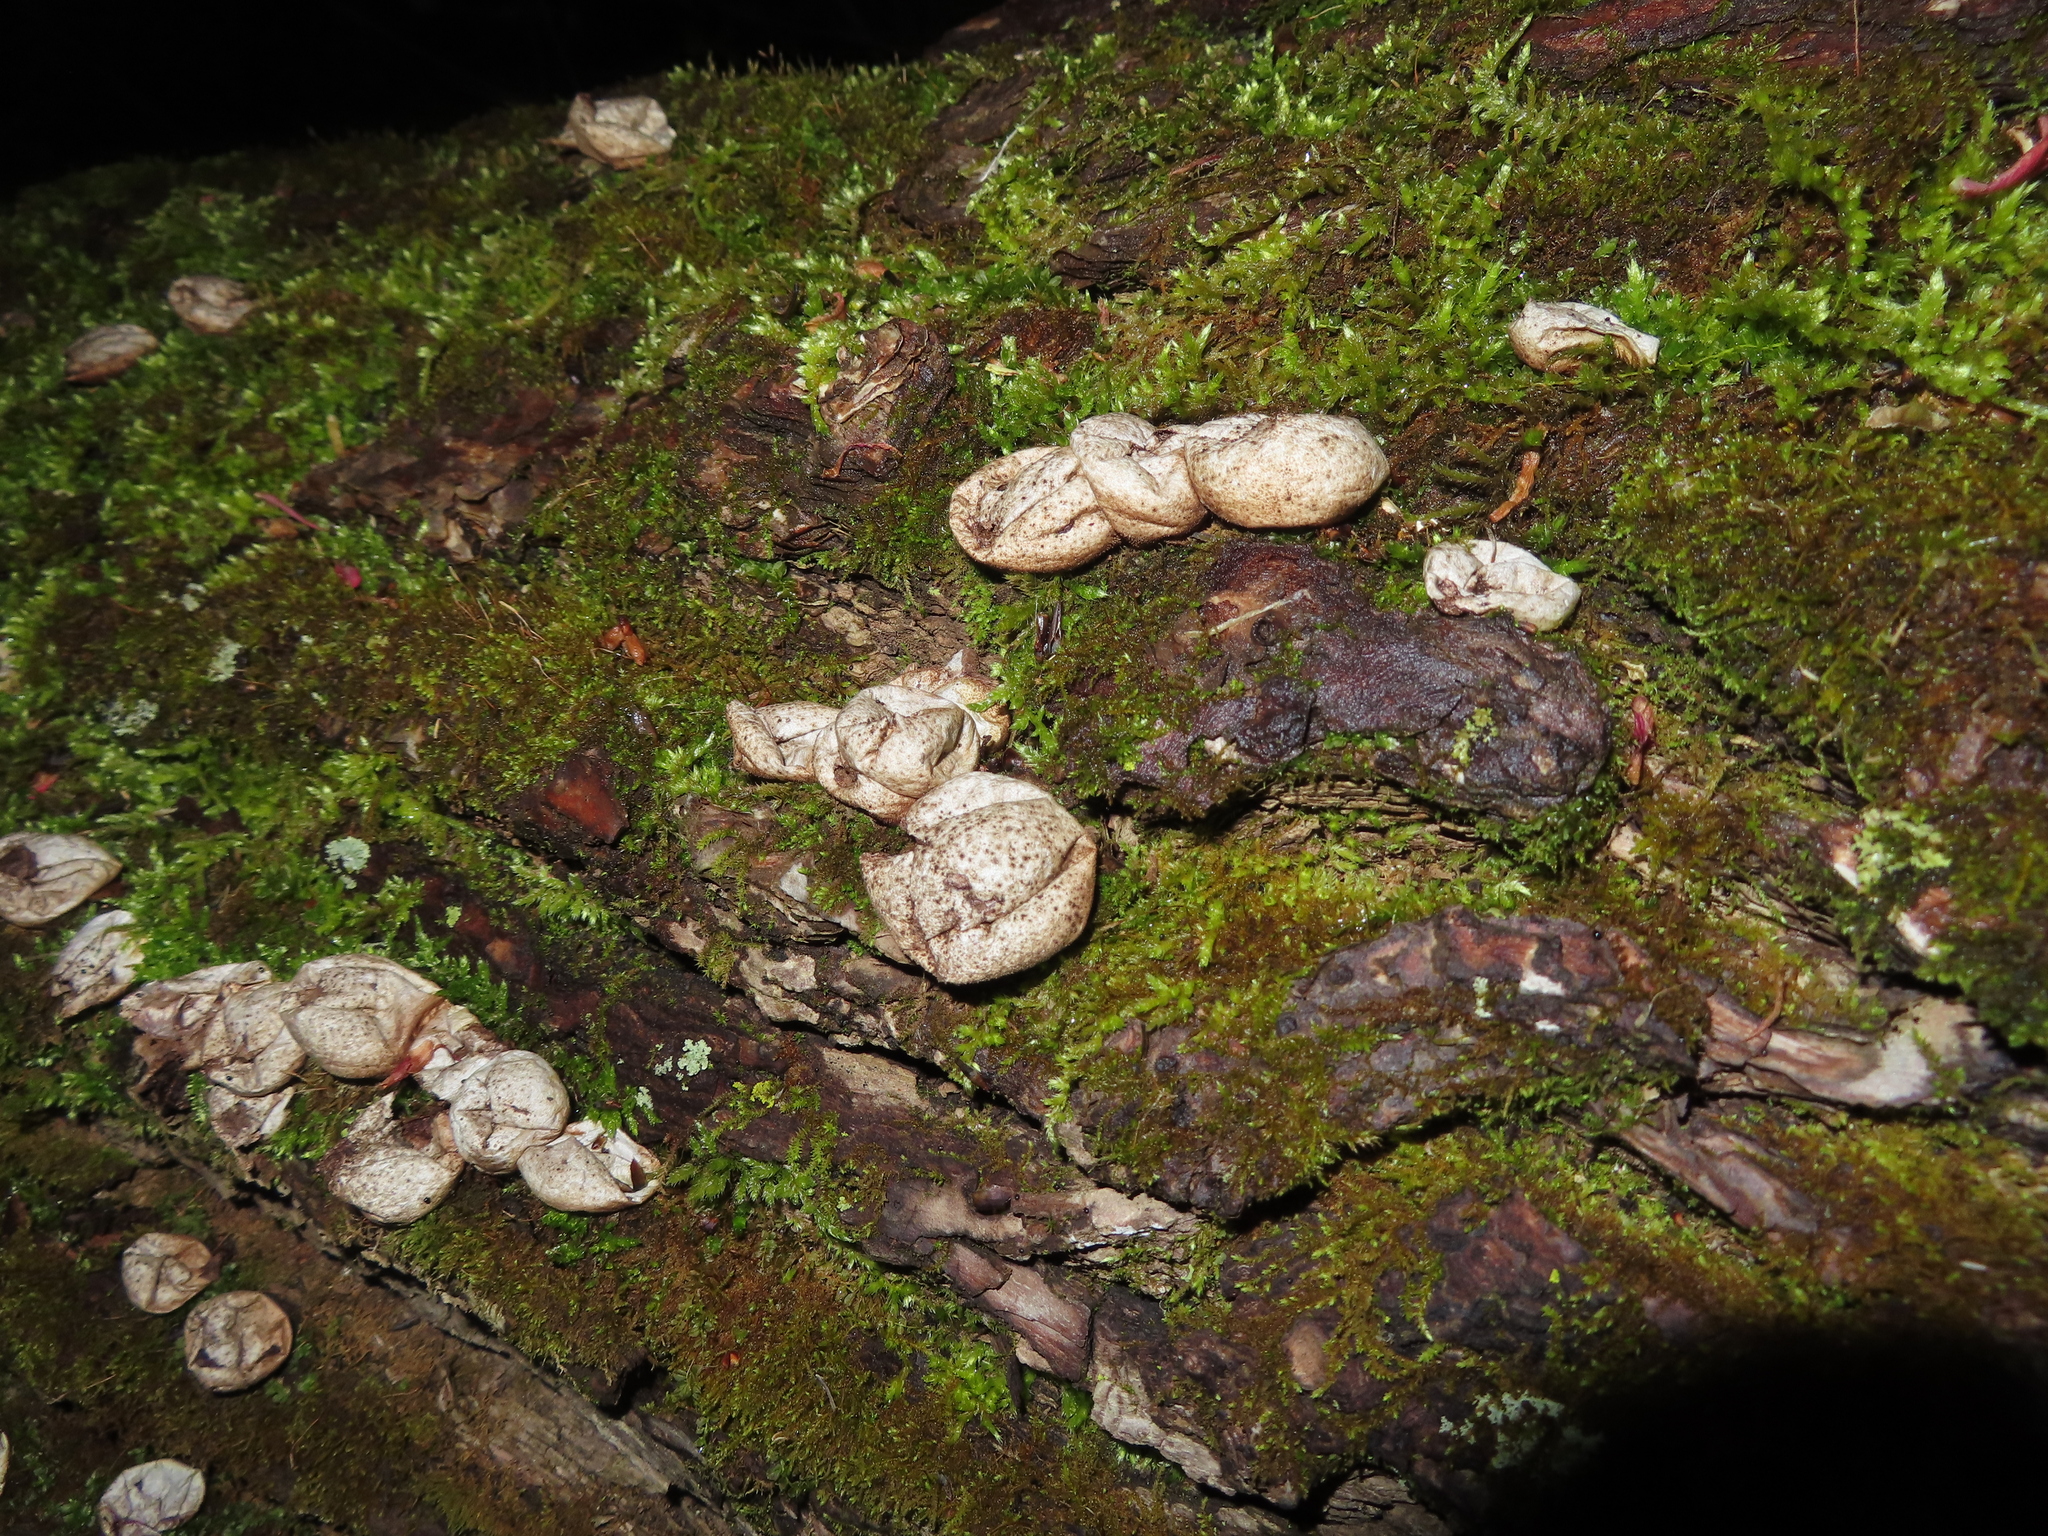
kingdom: Fungi
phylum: Basidiomycota
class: Agaricomycetes
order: Agaricales
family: Lycoperdaceae
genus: Apioperdon
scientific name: Apioperdon pyriforme
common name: Pear-shaped puffball
